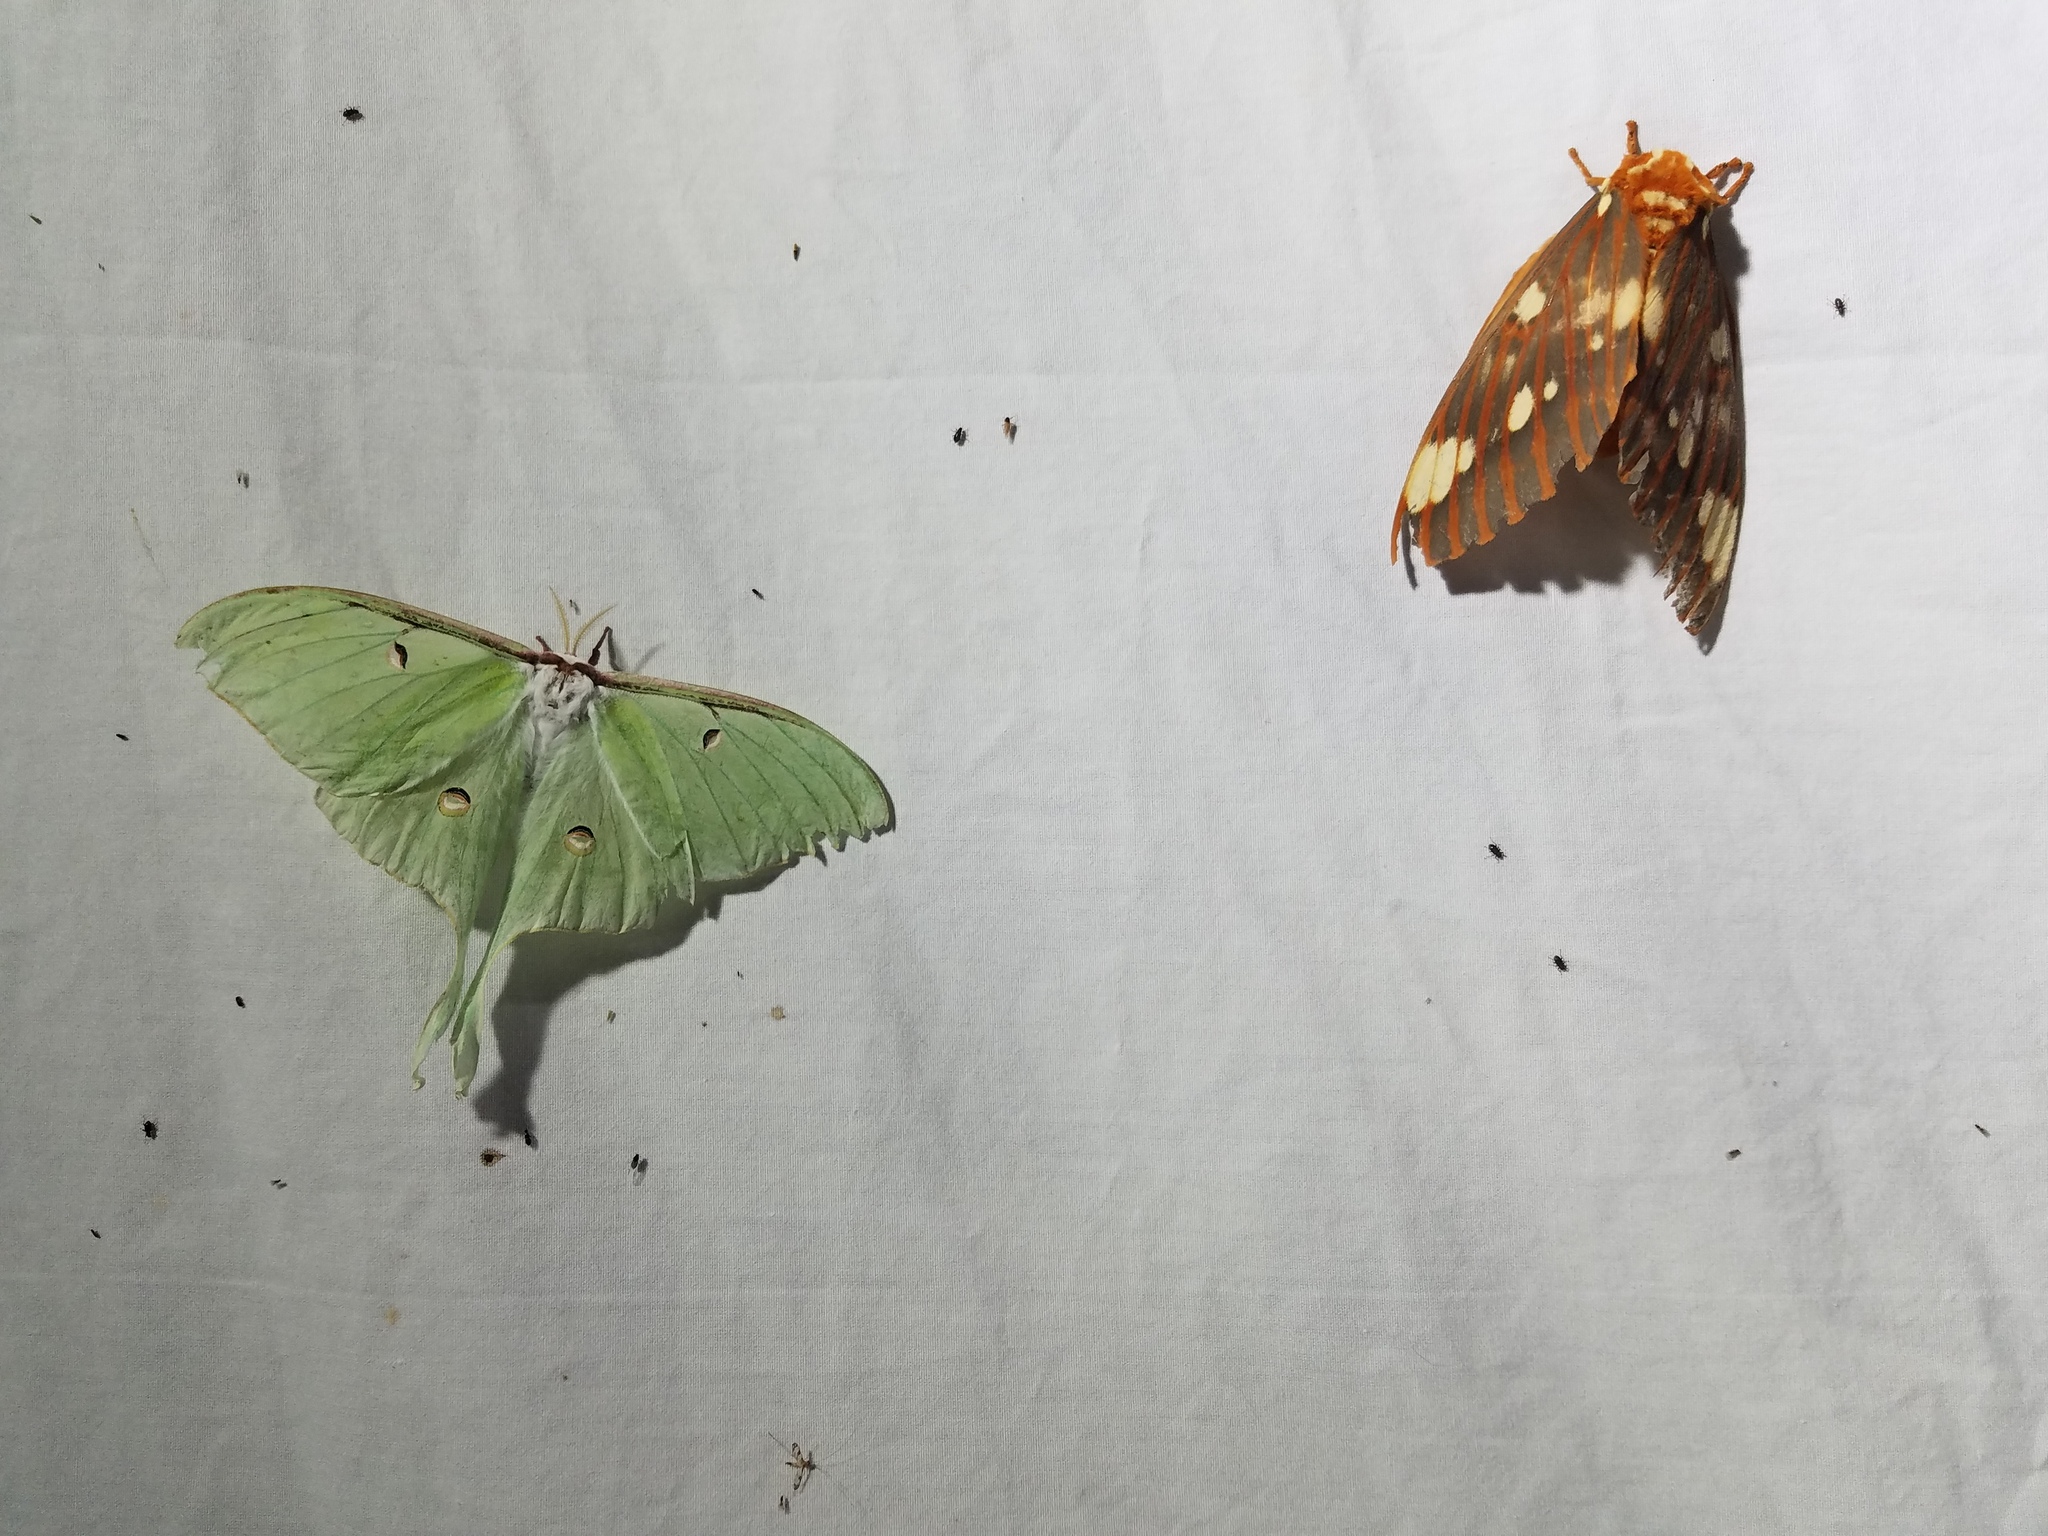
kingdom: Animalia
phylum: Arthropoda
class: Insecta
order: Lepidoptera
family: Saturniidae
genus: Actias
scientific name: Actias luna
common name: Luna moth
